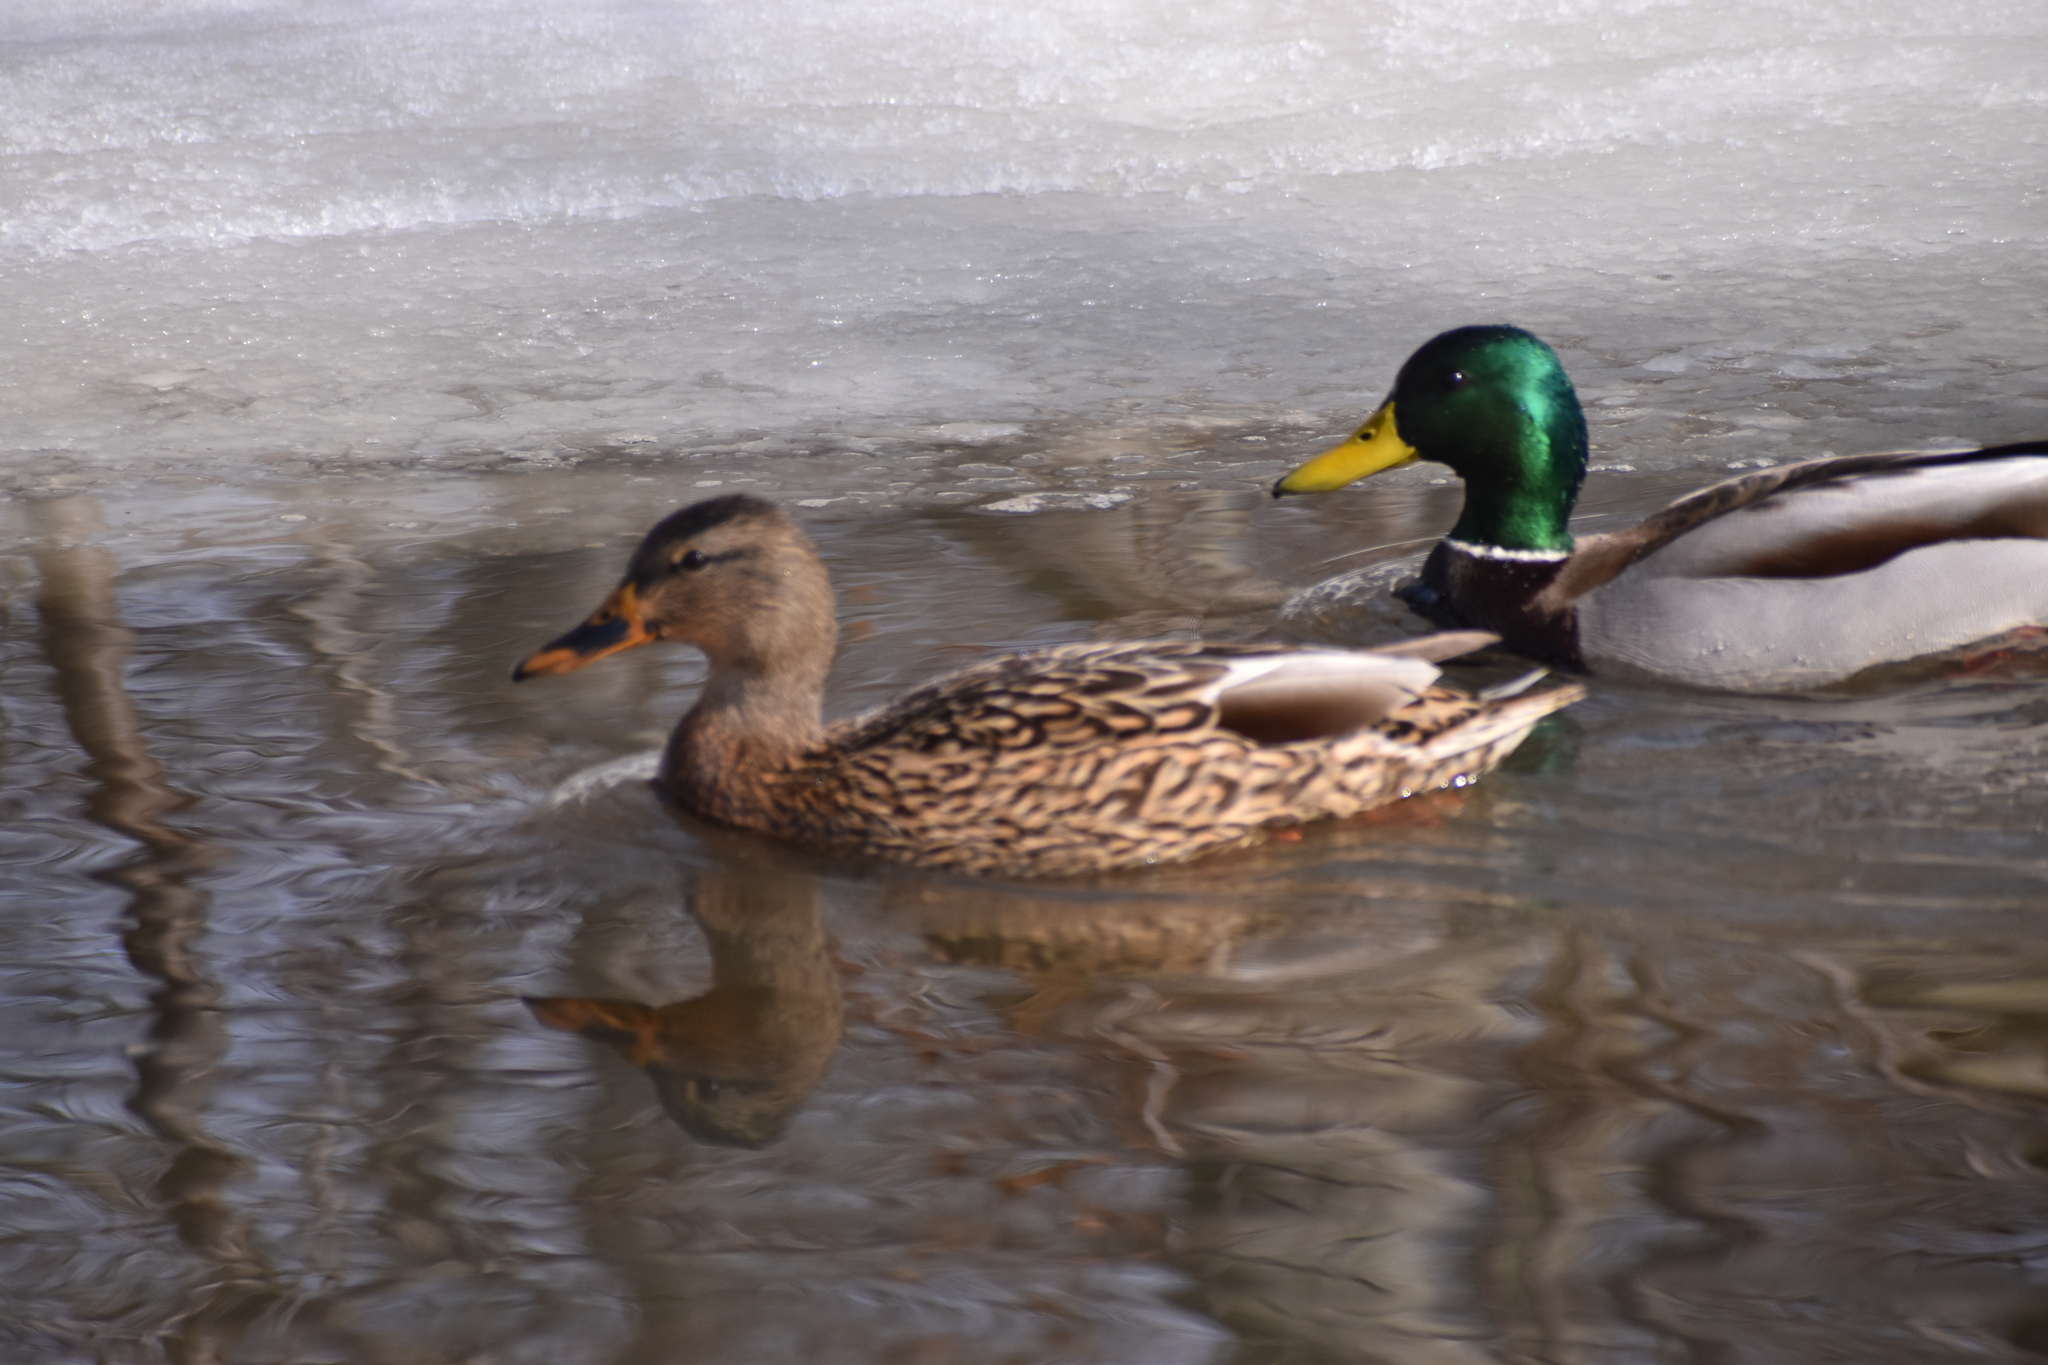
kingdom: Animalia
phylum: Chordata
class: Aves
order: Anseriformes
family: Anatidae
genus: Anas
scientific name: Anas platyrhynchos
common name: Mallard
